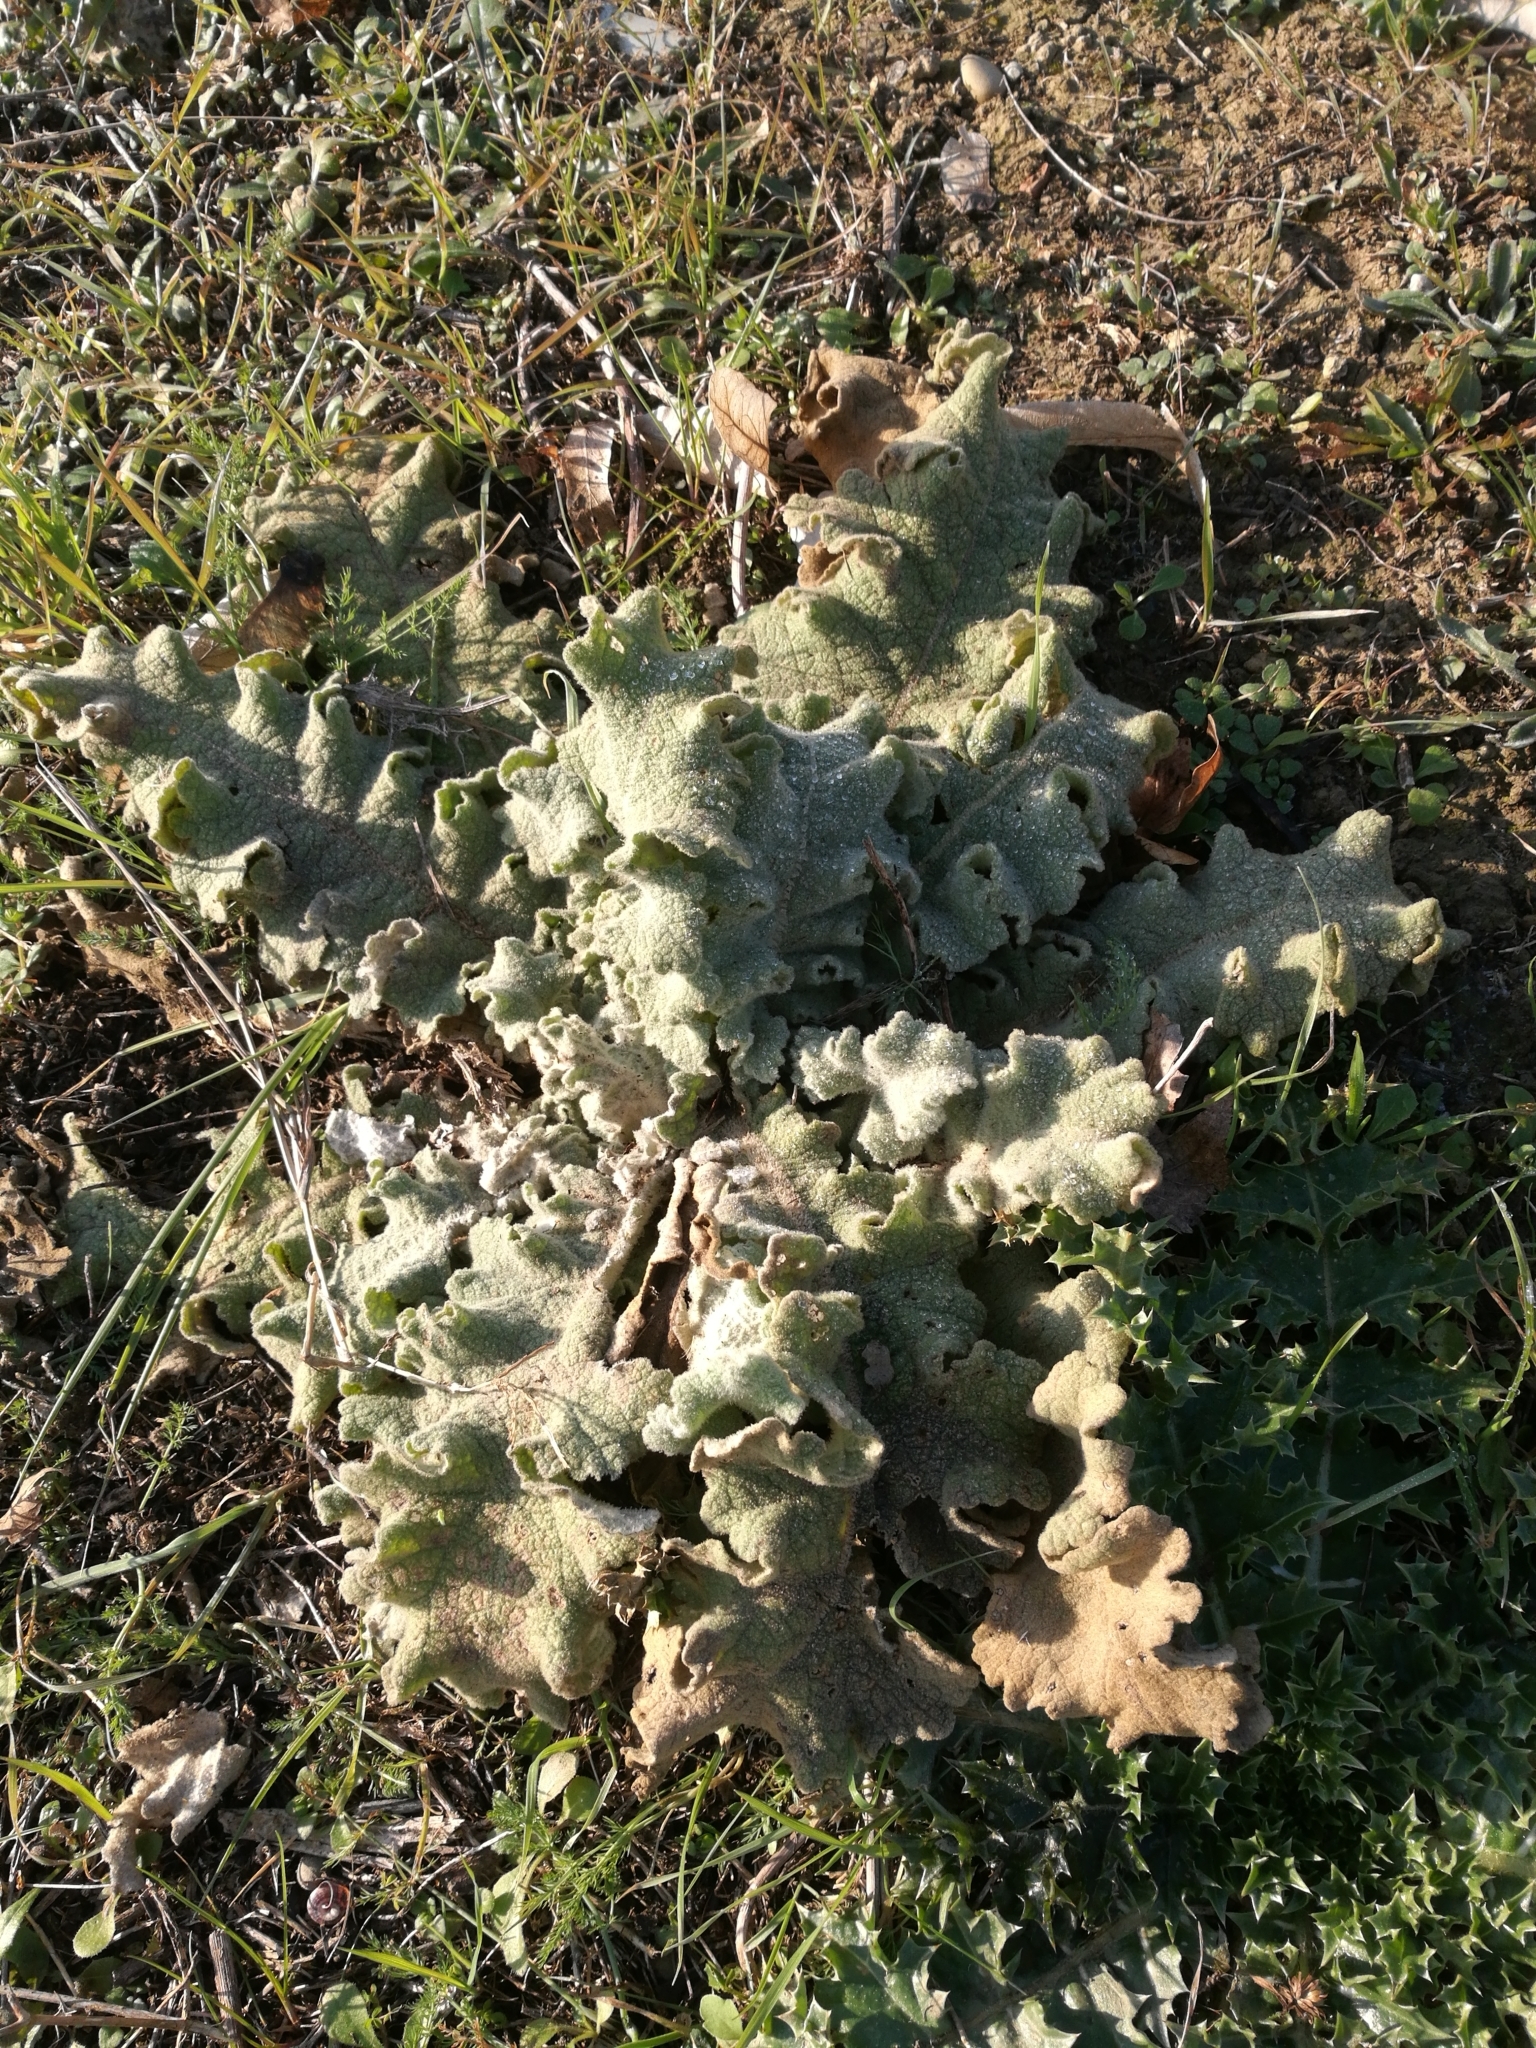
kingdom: Plantae
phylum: Tracheophyta
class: Magnoliopsida
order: Lamiales
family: Scrophulariaceae
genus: Verbascum
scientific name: Verbascum sinuatum
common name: Wavyleaf mullein
